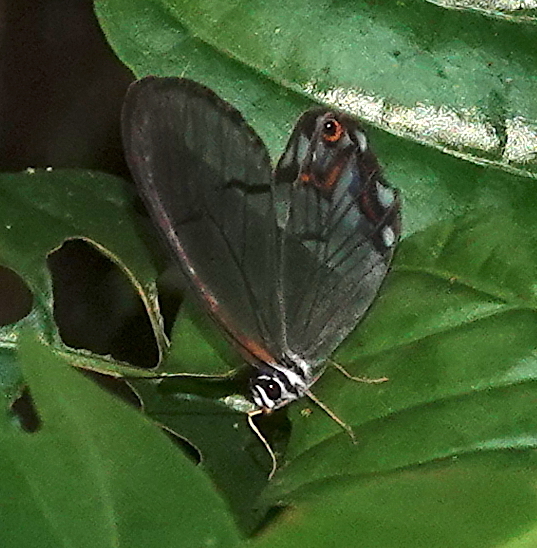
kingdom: Animalia
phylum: Arthropoda
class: Insecta
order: Lepidoptera
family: Nymphalidae
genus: Pseudohaetera
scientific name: Pseudohaetera hypaesia
